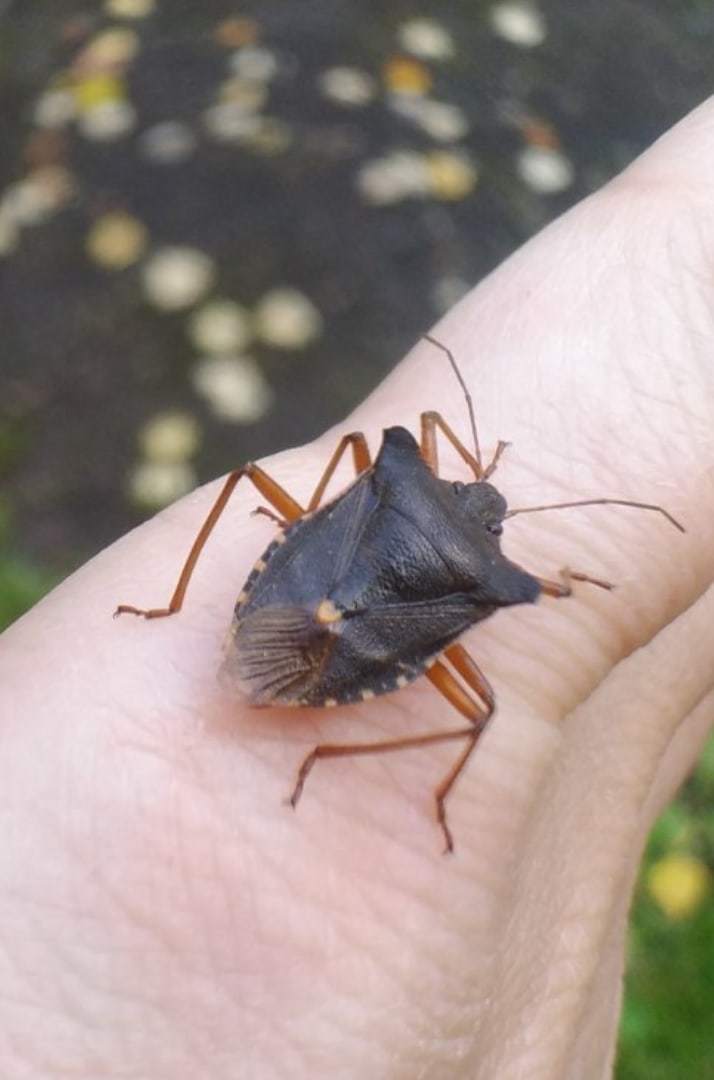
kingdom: Animalia
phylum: Arthropoda
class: Insecta
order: Hemiptera
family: Pentatomidae
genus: Pentatoma
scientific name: Pentatoma rufipes
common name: Forest bug
